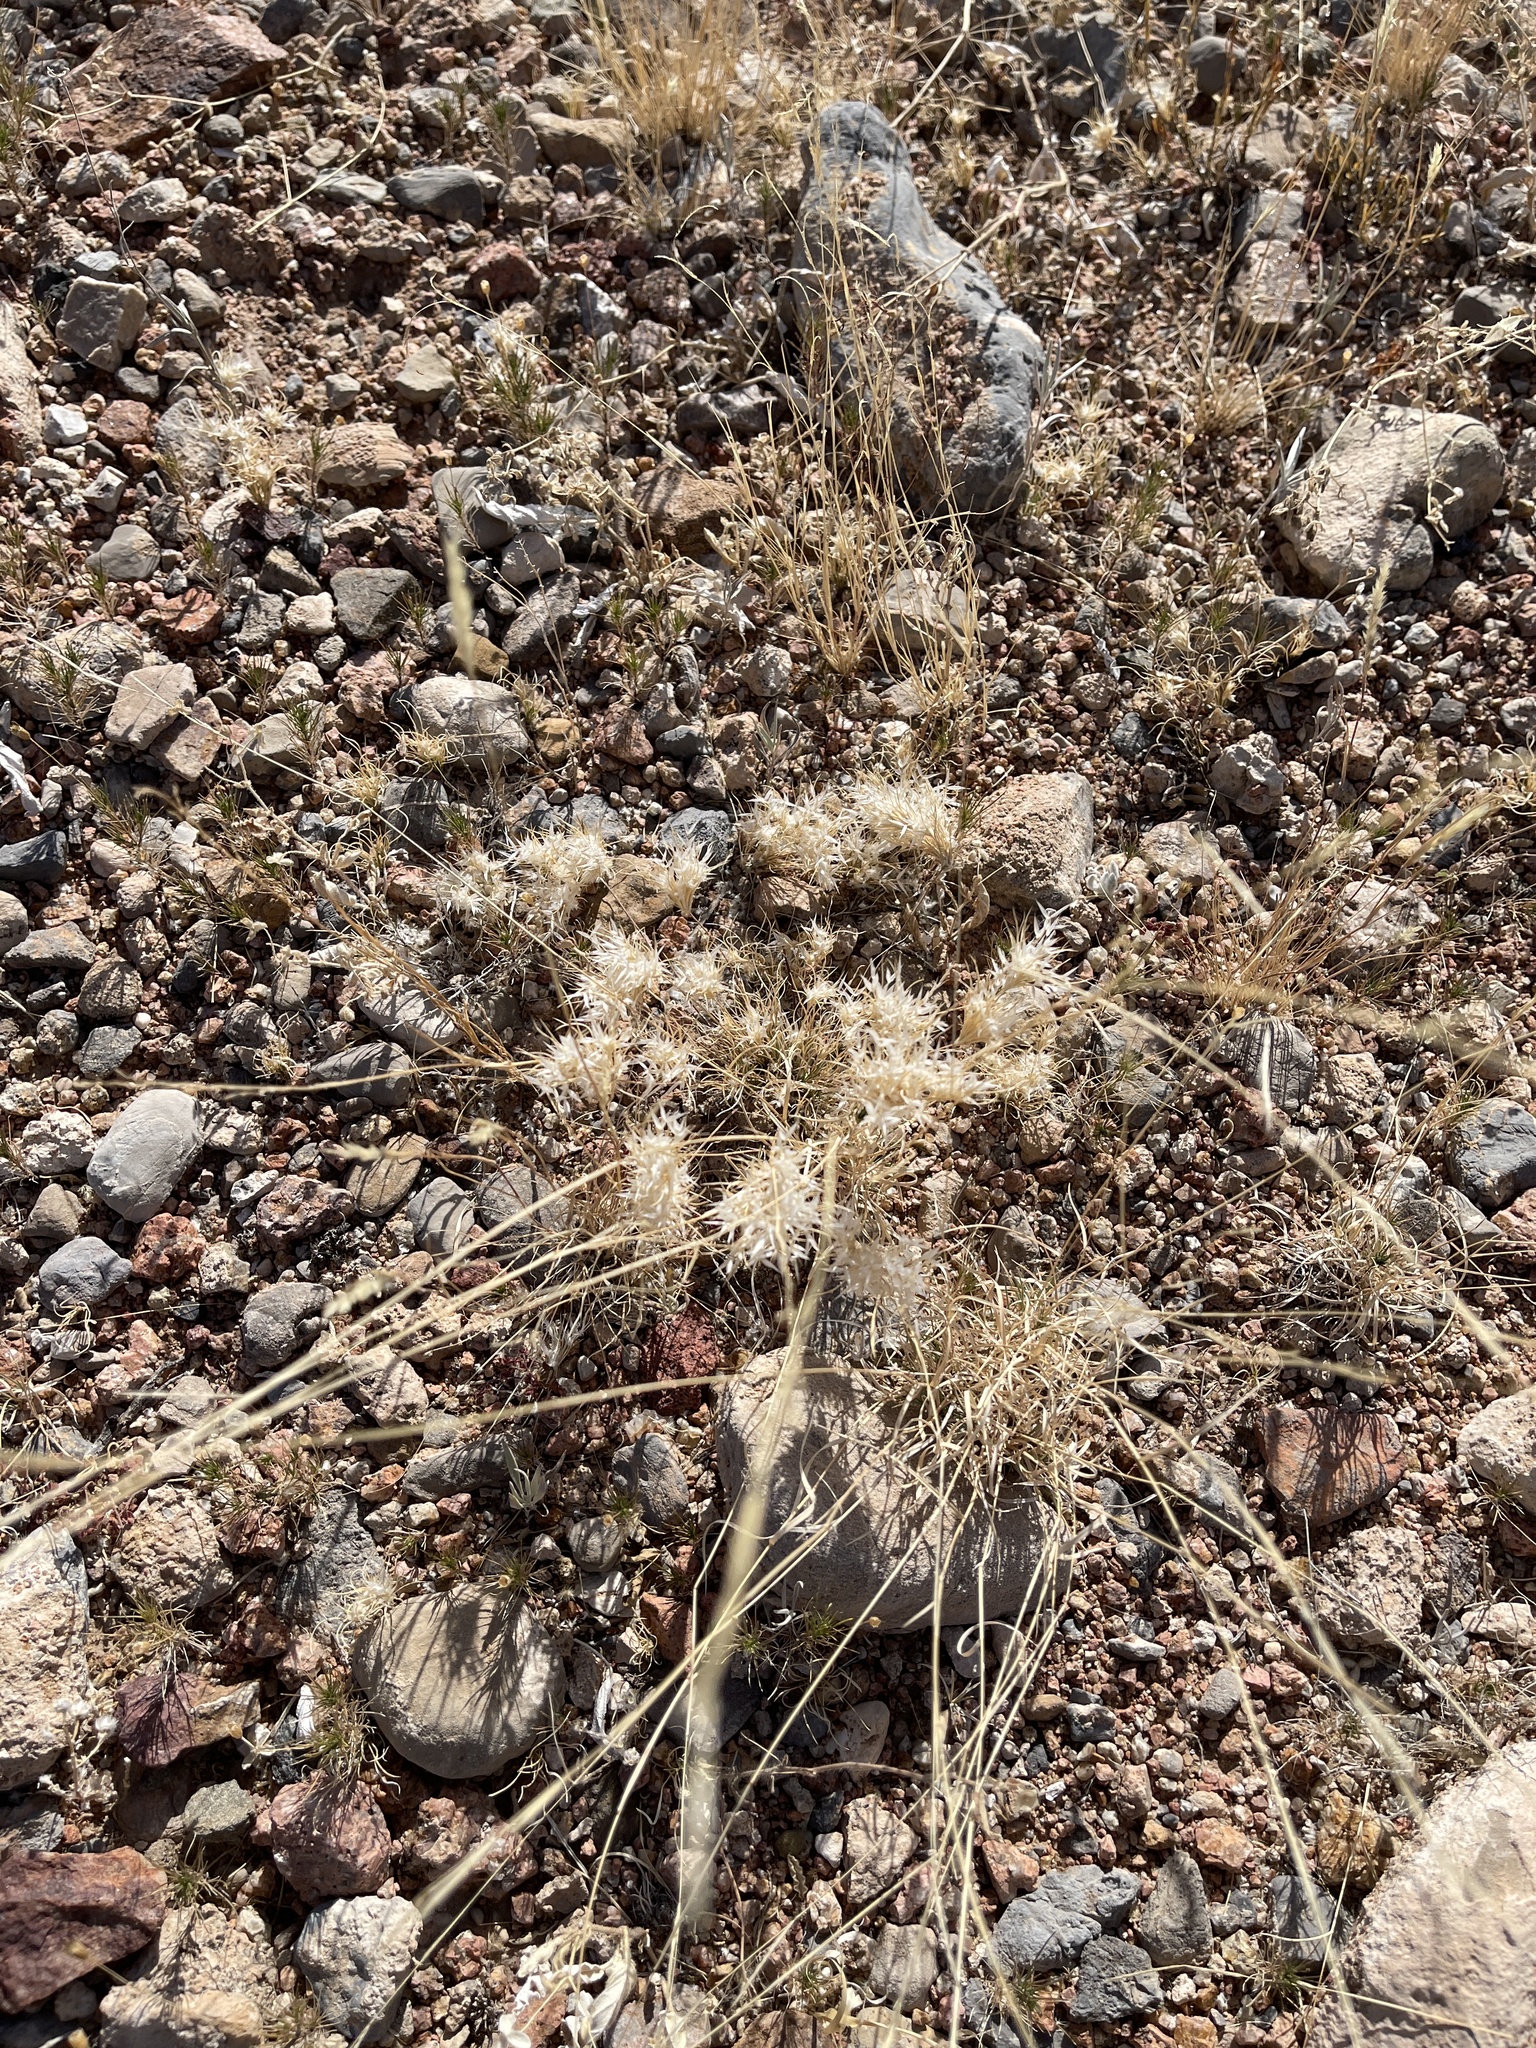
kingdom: Plantae
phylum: Tracheophyta
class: Liliopsida
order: Poales
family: Poaceae
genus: Dasyochloa
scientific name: Dasyochloa pulchella
